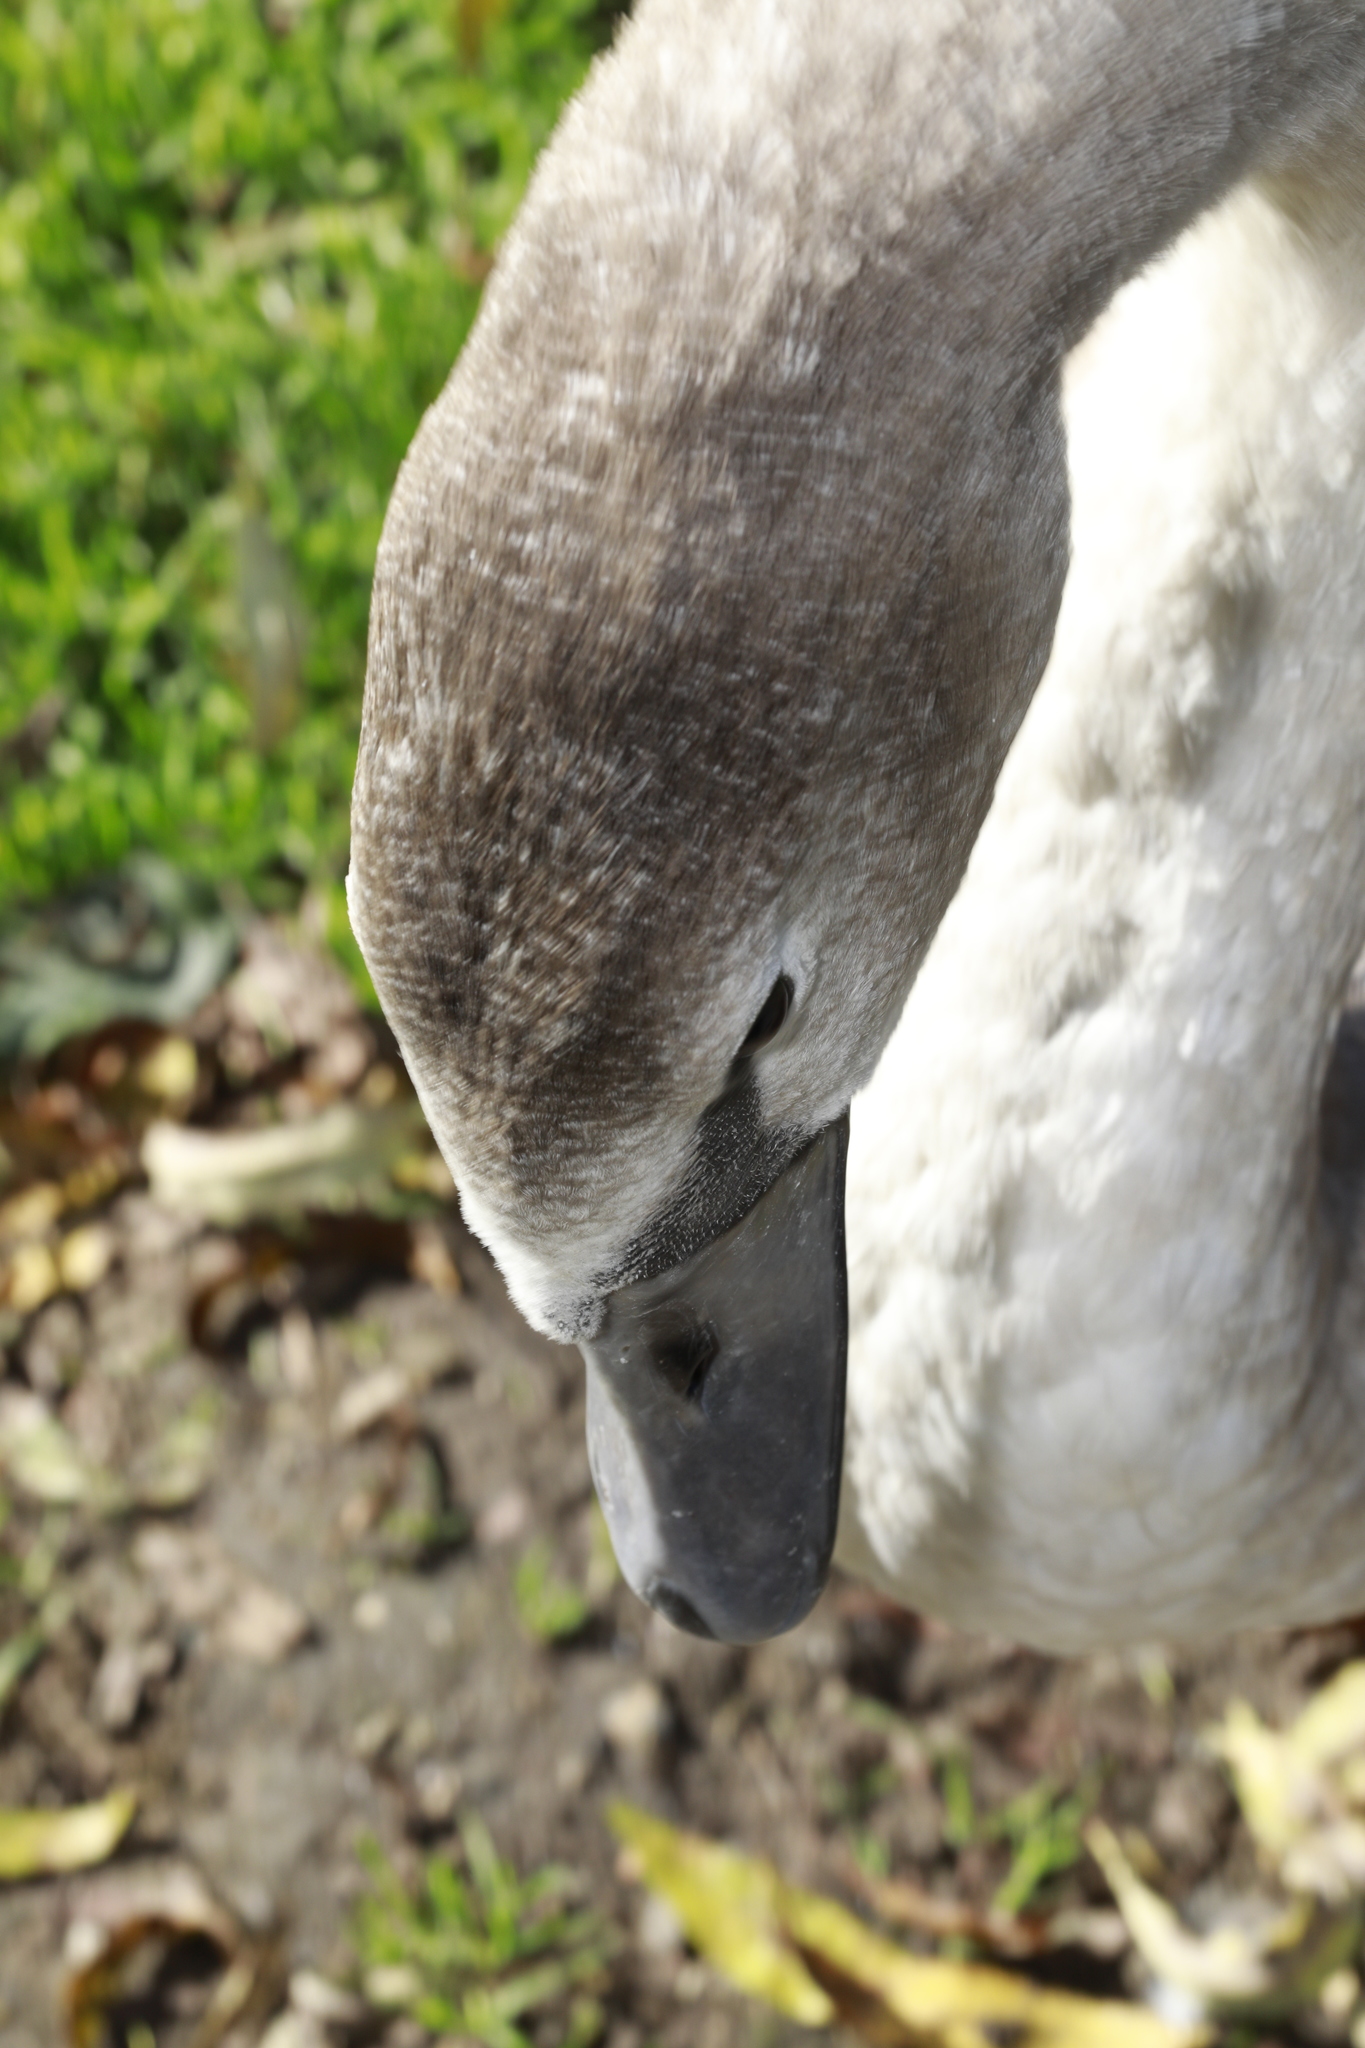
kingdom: Animalia
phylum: Chordata
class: Aves
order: Anseriformes
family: Anatidae
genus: Cygnus
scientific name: Cygnus olor
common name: Mute swan
